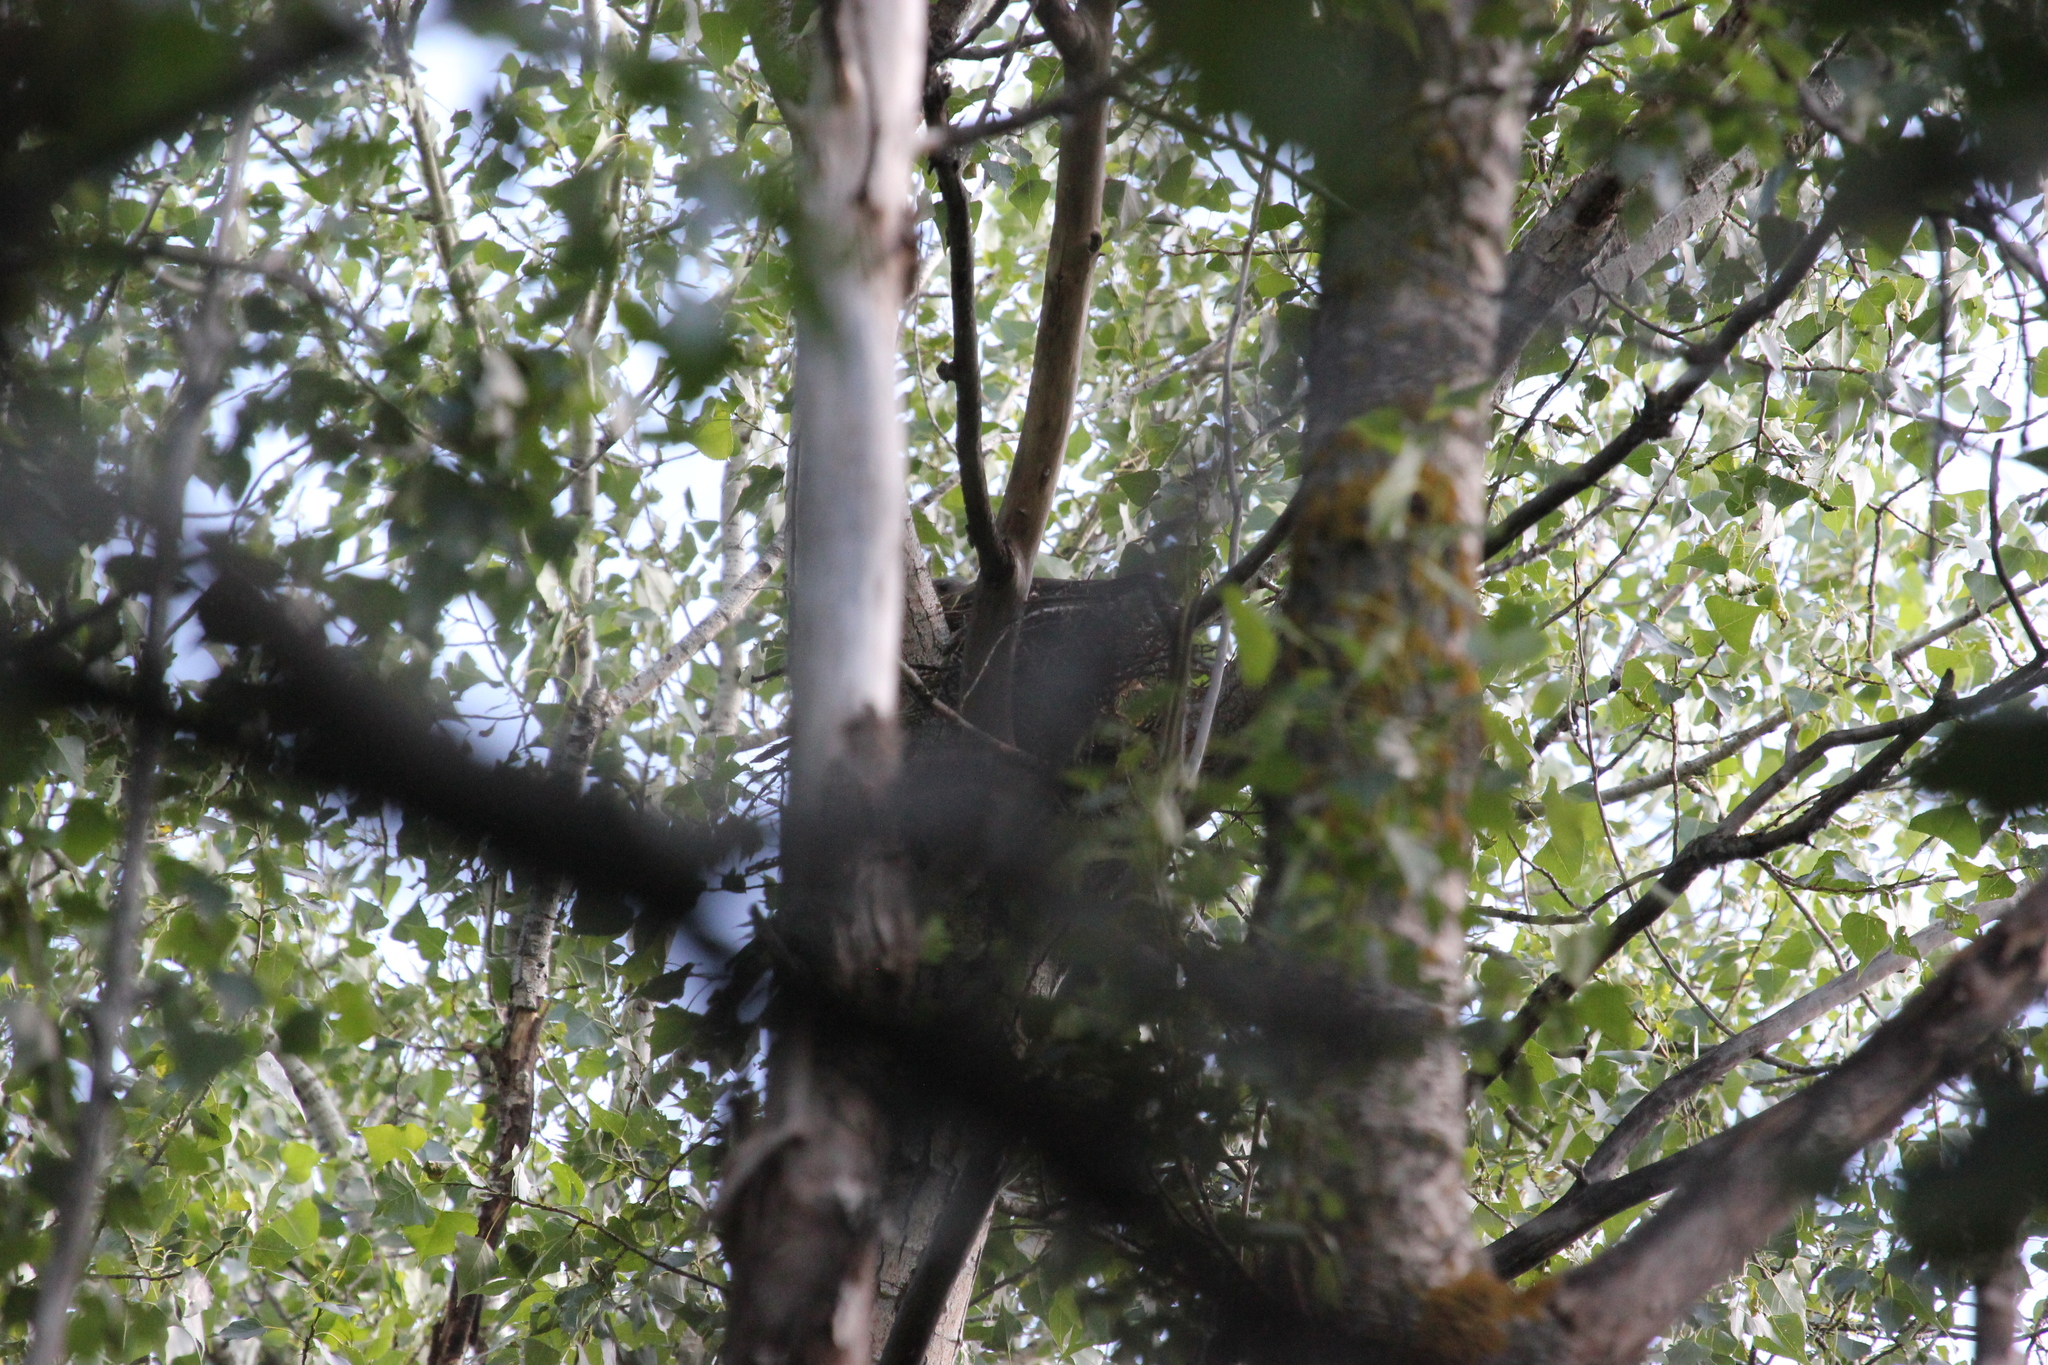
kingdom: Animalia
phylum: Chordata
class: Aves
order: Accipitriformes
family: Accipitridae
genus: Accipiter
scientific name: Accipiter brevipes
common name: Levant sparrowhawk
